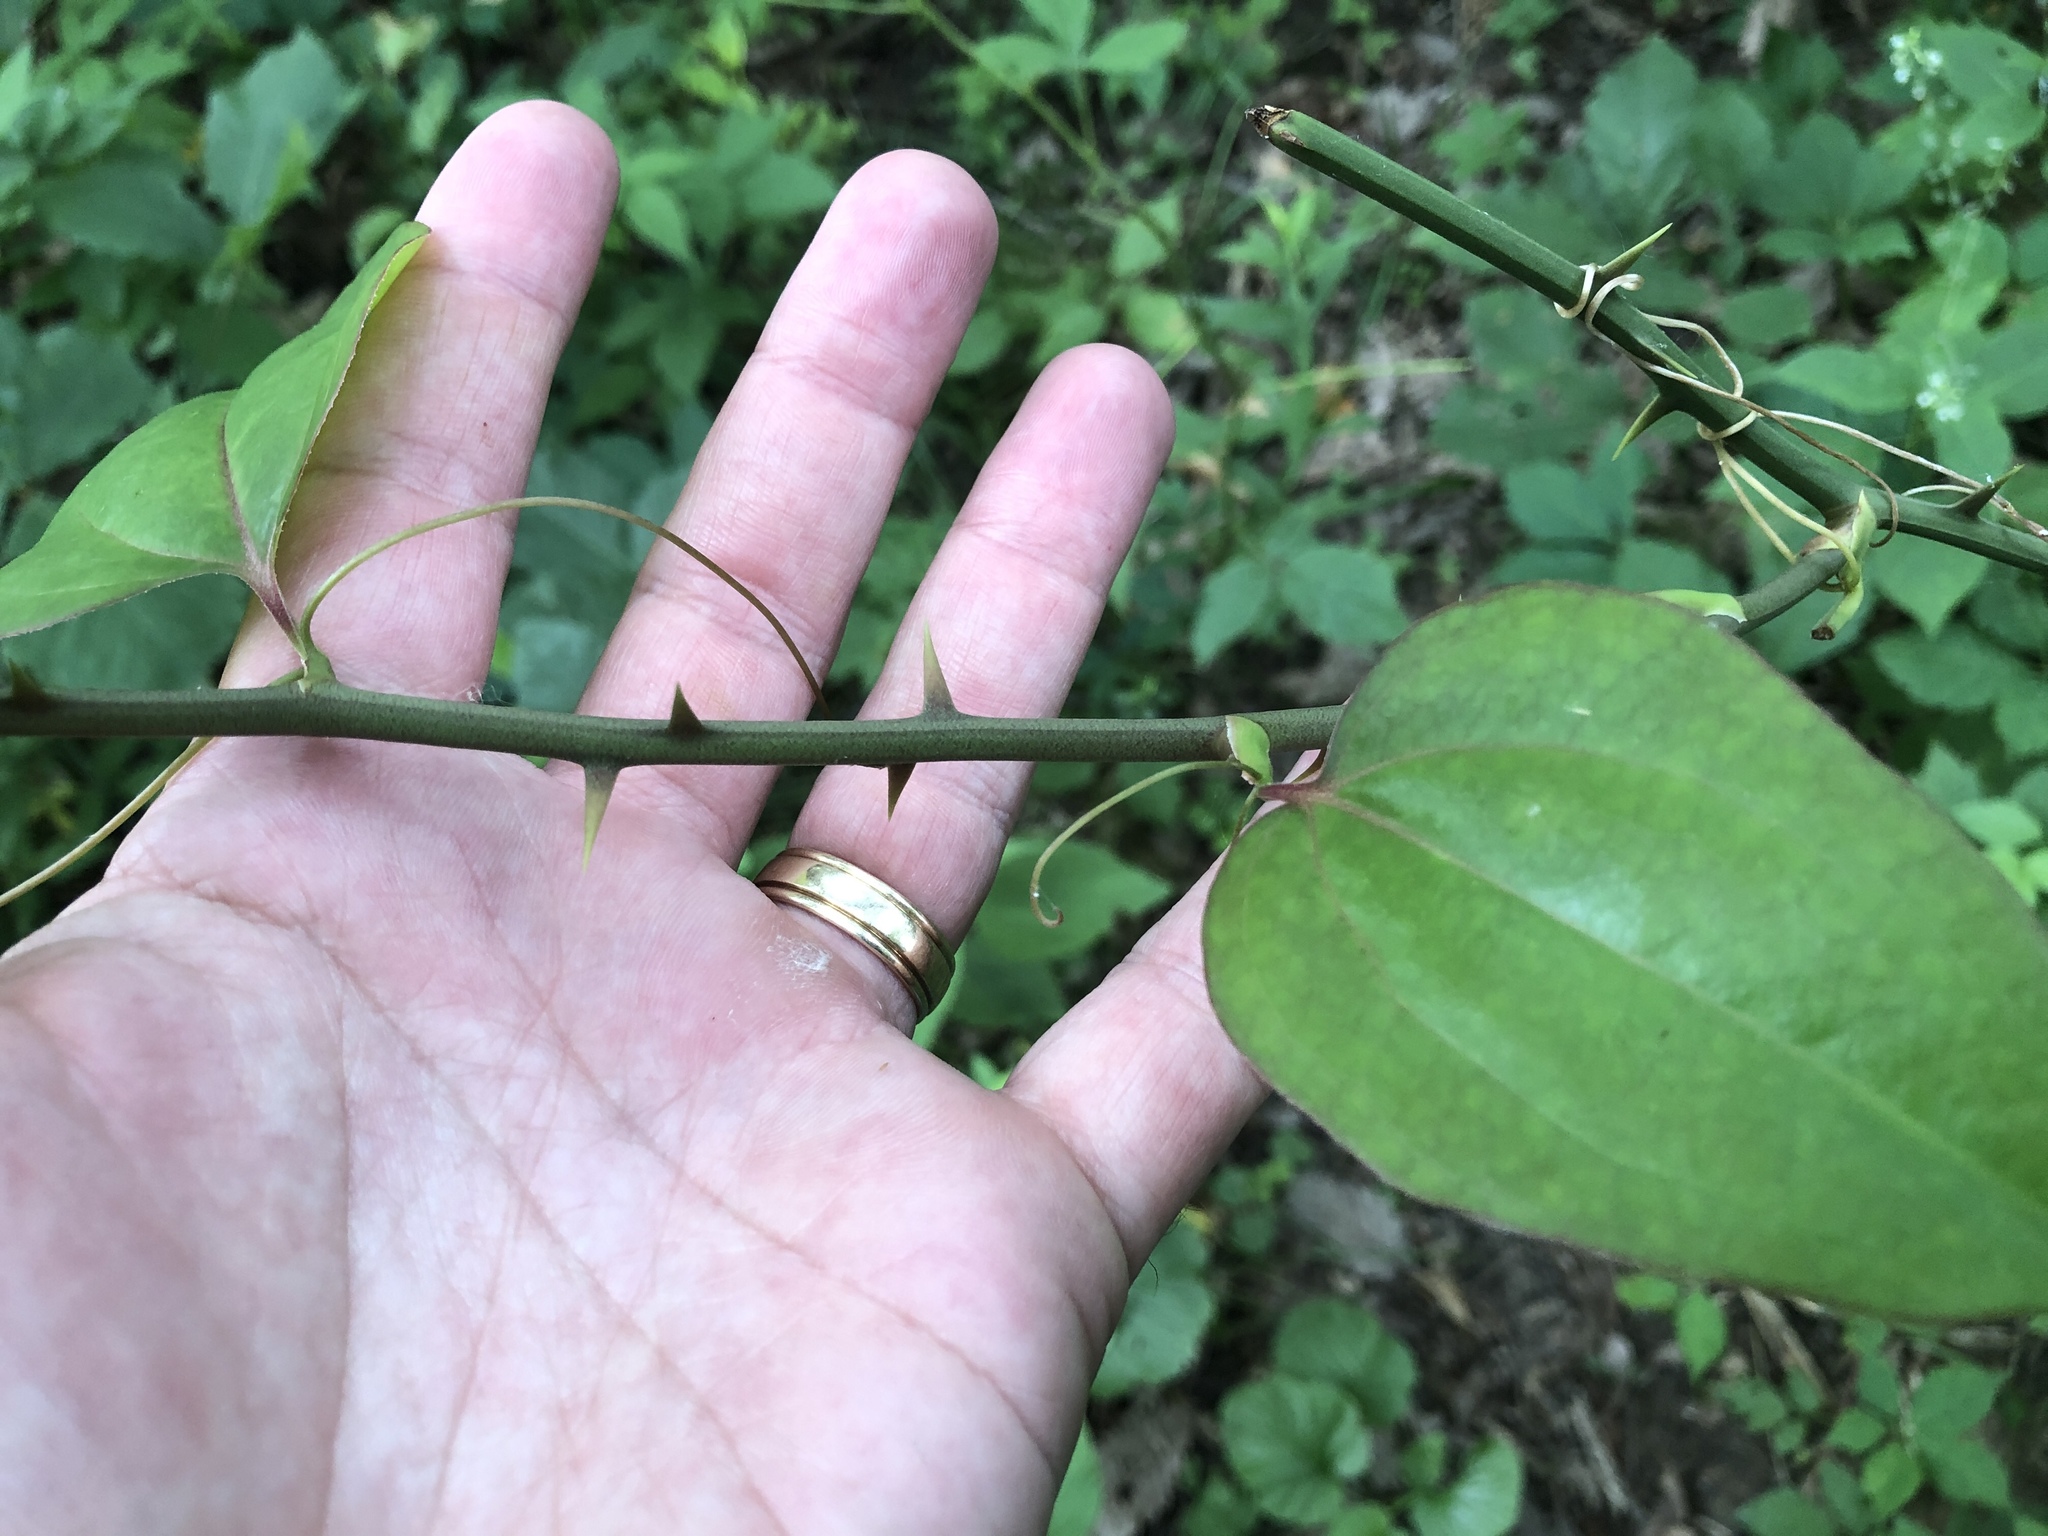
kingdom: Plantae
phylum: Tracheophyta
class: Liliopsida
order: Liliales
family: Smilacaceae
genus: Smilax
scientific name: Smilax rotundifolia
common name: Bullbriar
